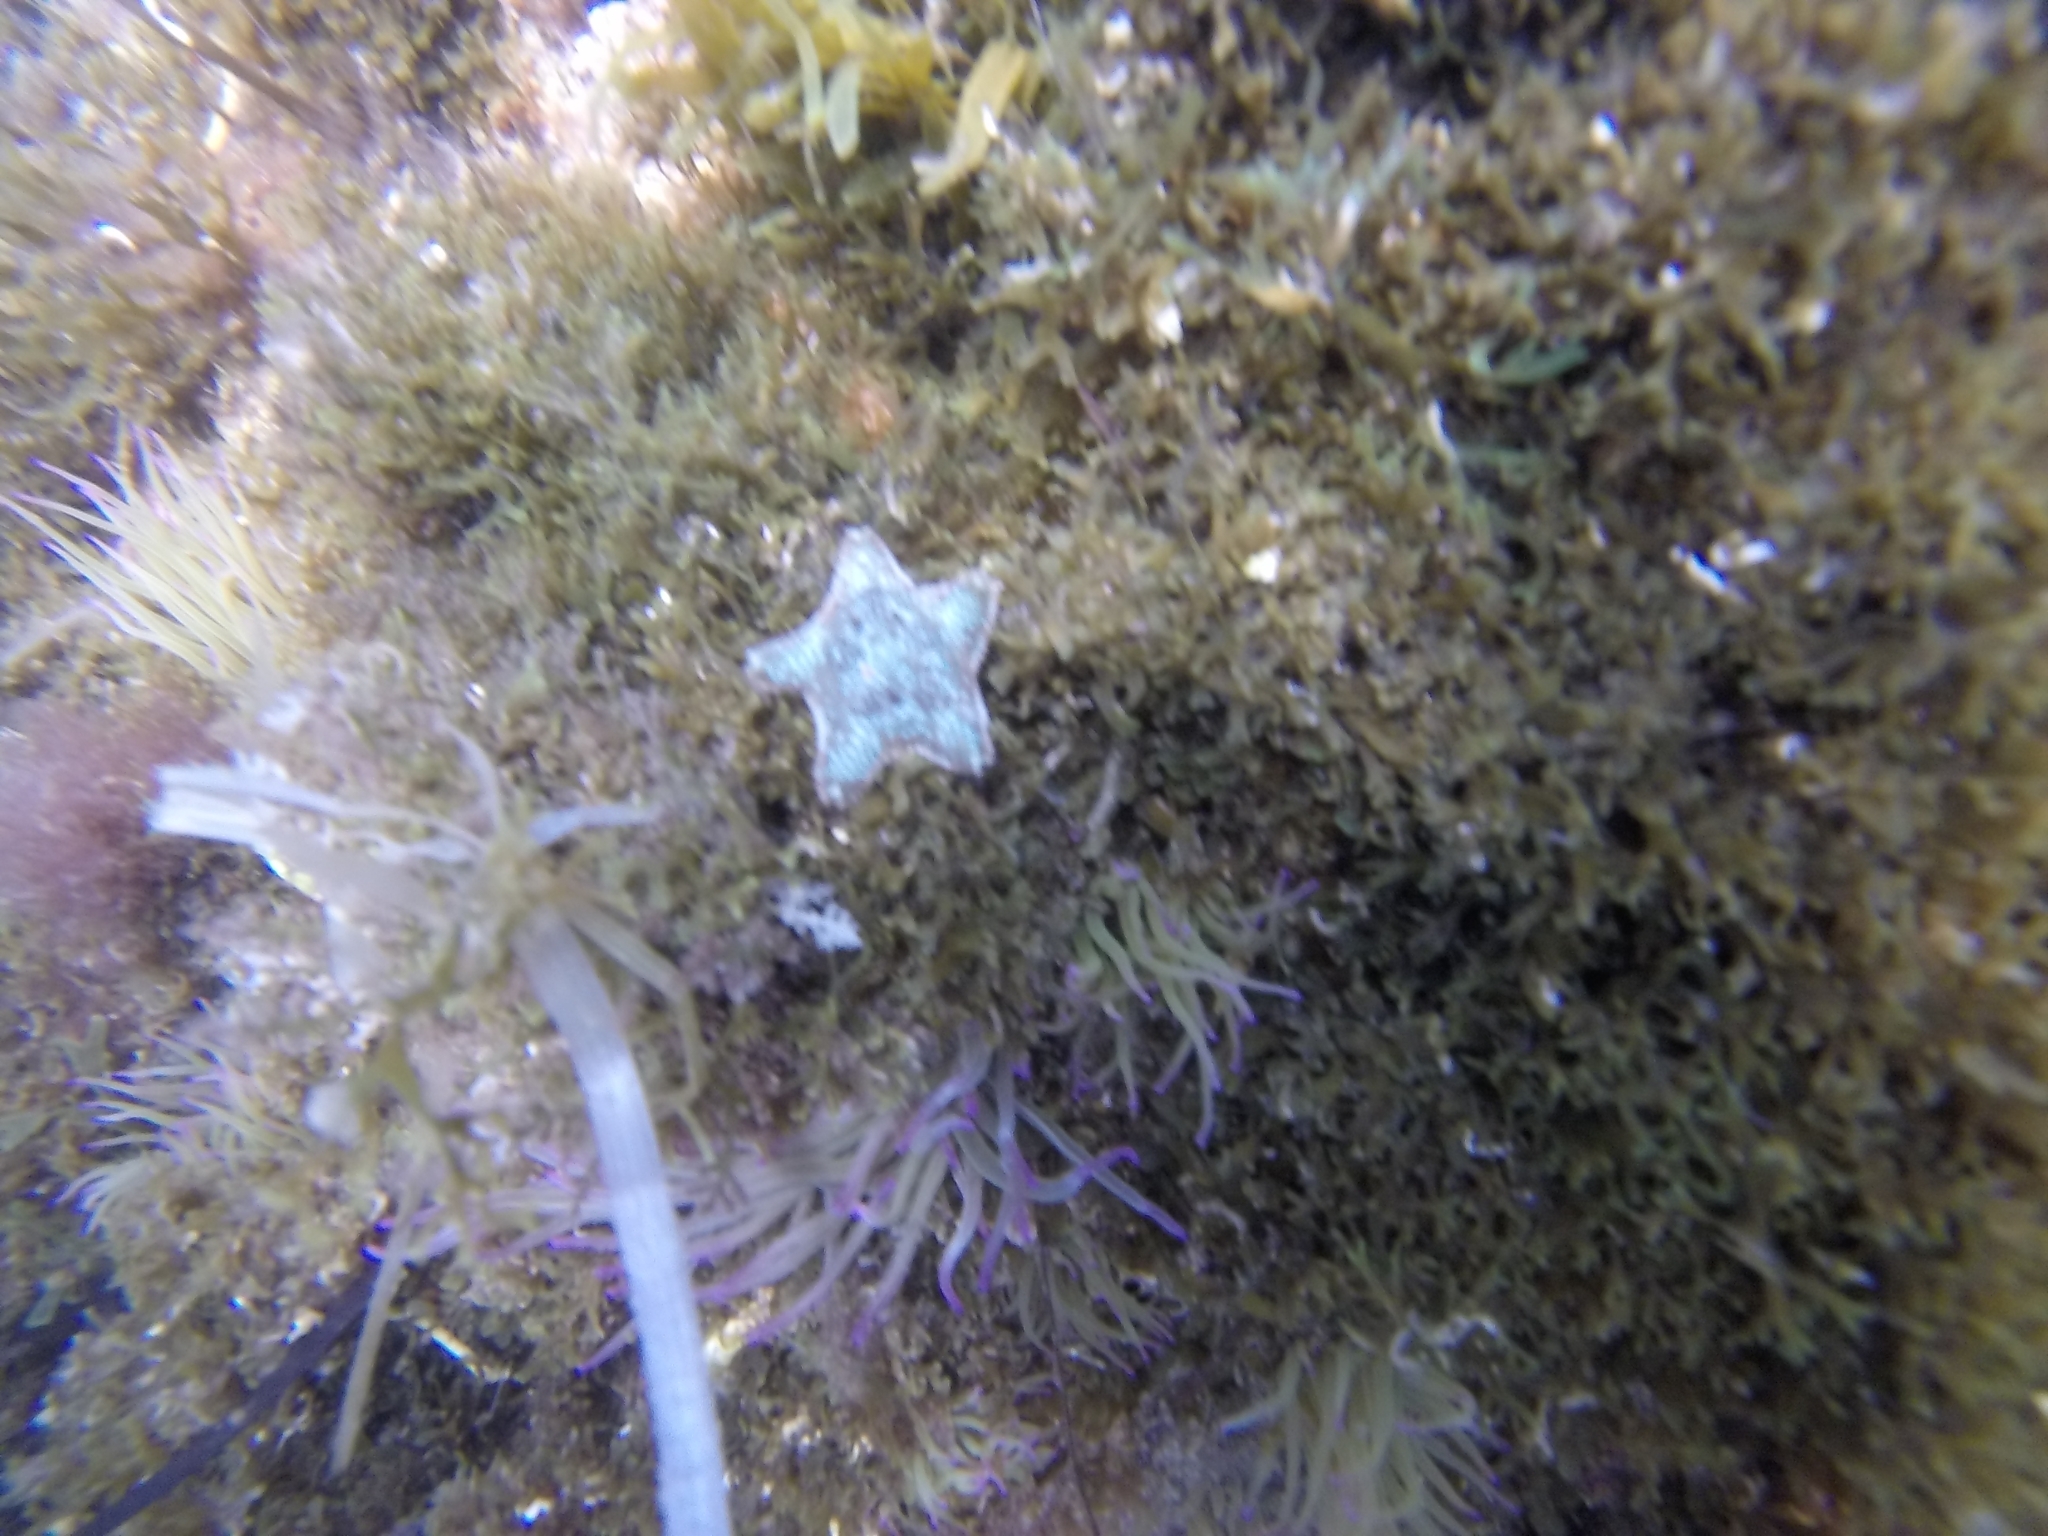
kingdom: Animalia
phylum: Echinodermata
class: Asteroidea
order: Valvatida
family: Asterinidae
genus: Asterina
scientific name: Asterina gibbosa
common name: Cushion star
